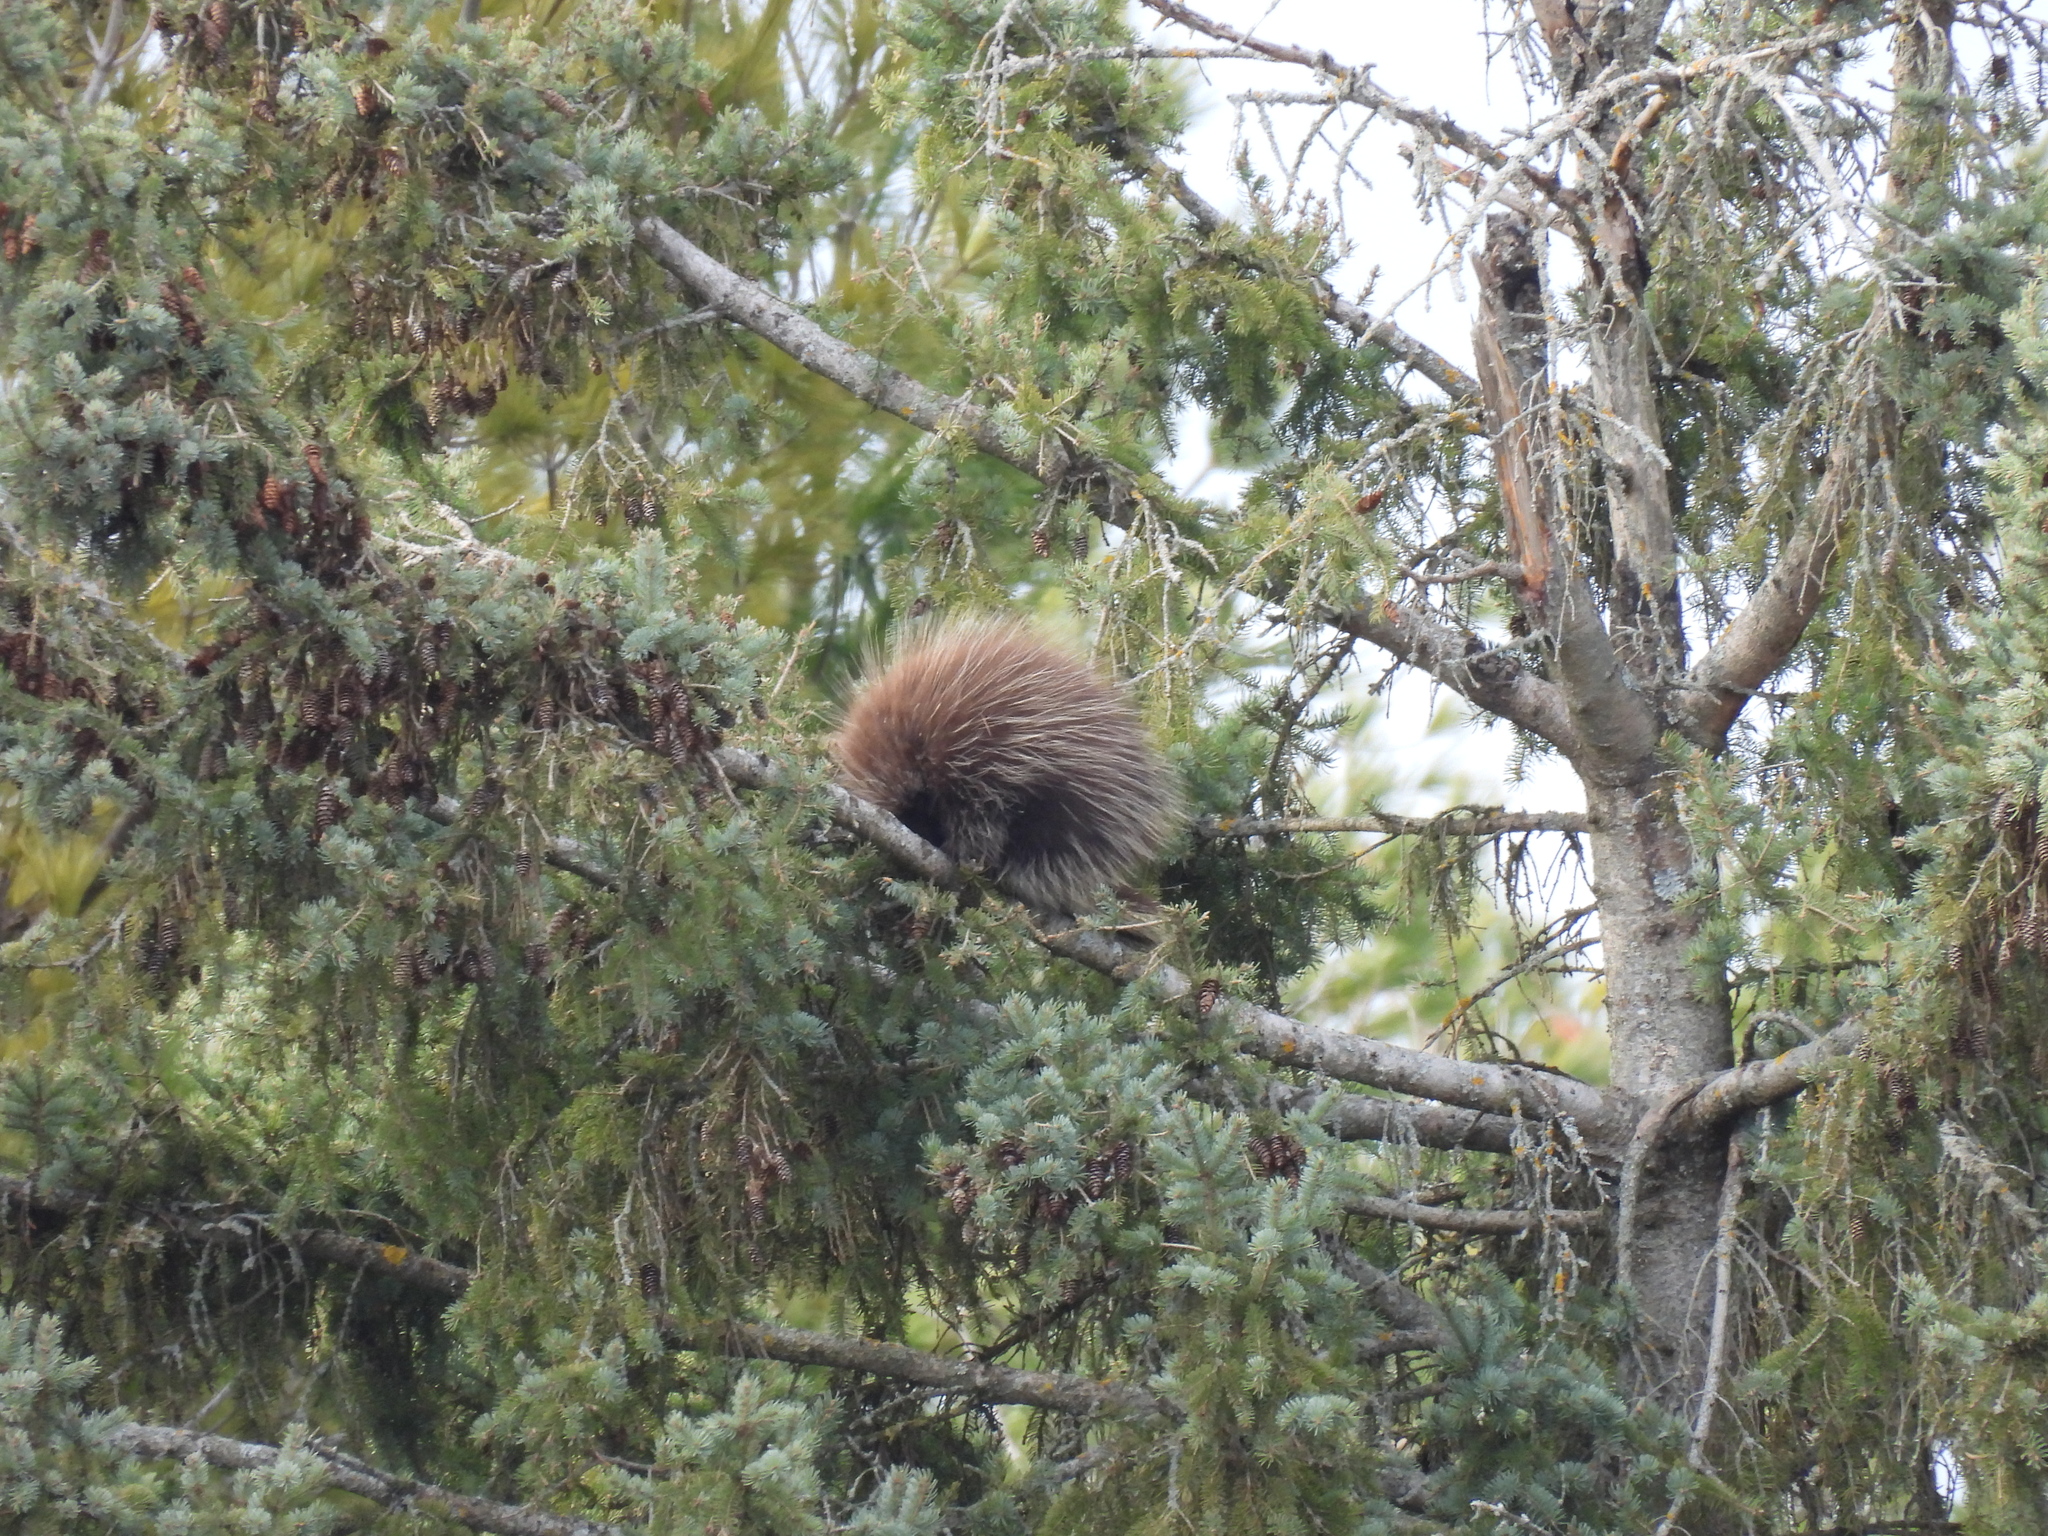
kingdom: Animalia
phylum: Chordata
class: Mammalia
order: Rodentia
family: Erethizontidae
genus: Erethizon
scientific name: Erethizon dorsatus
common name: North american porcupine
